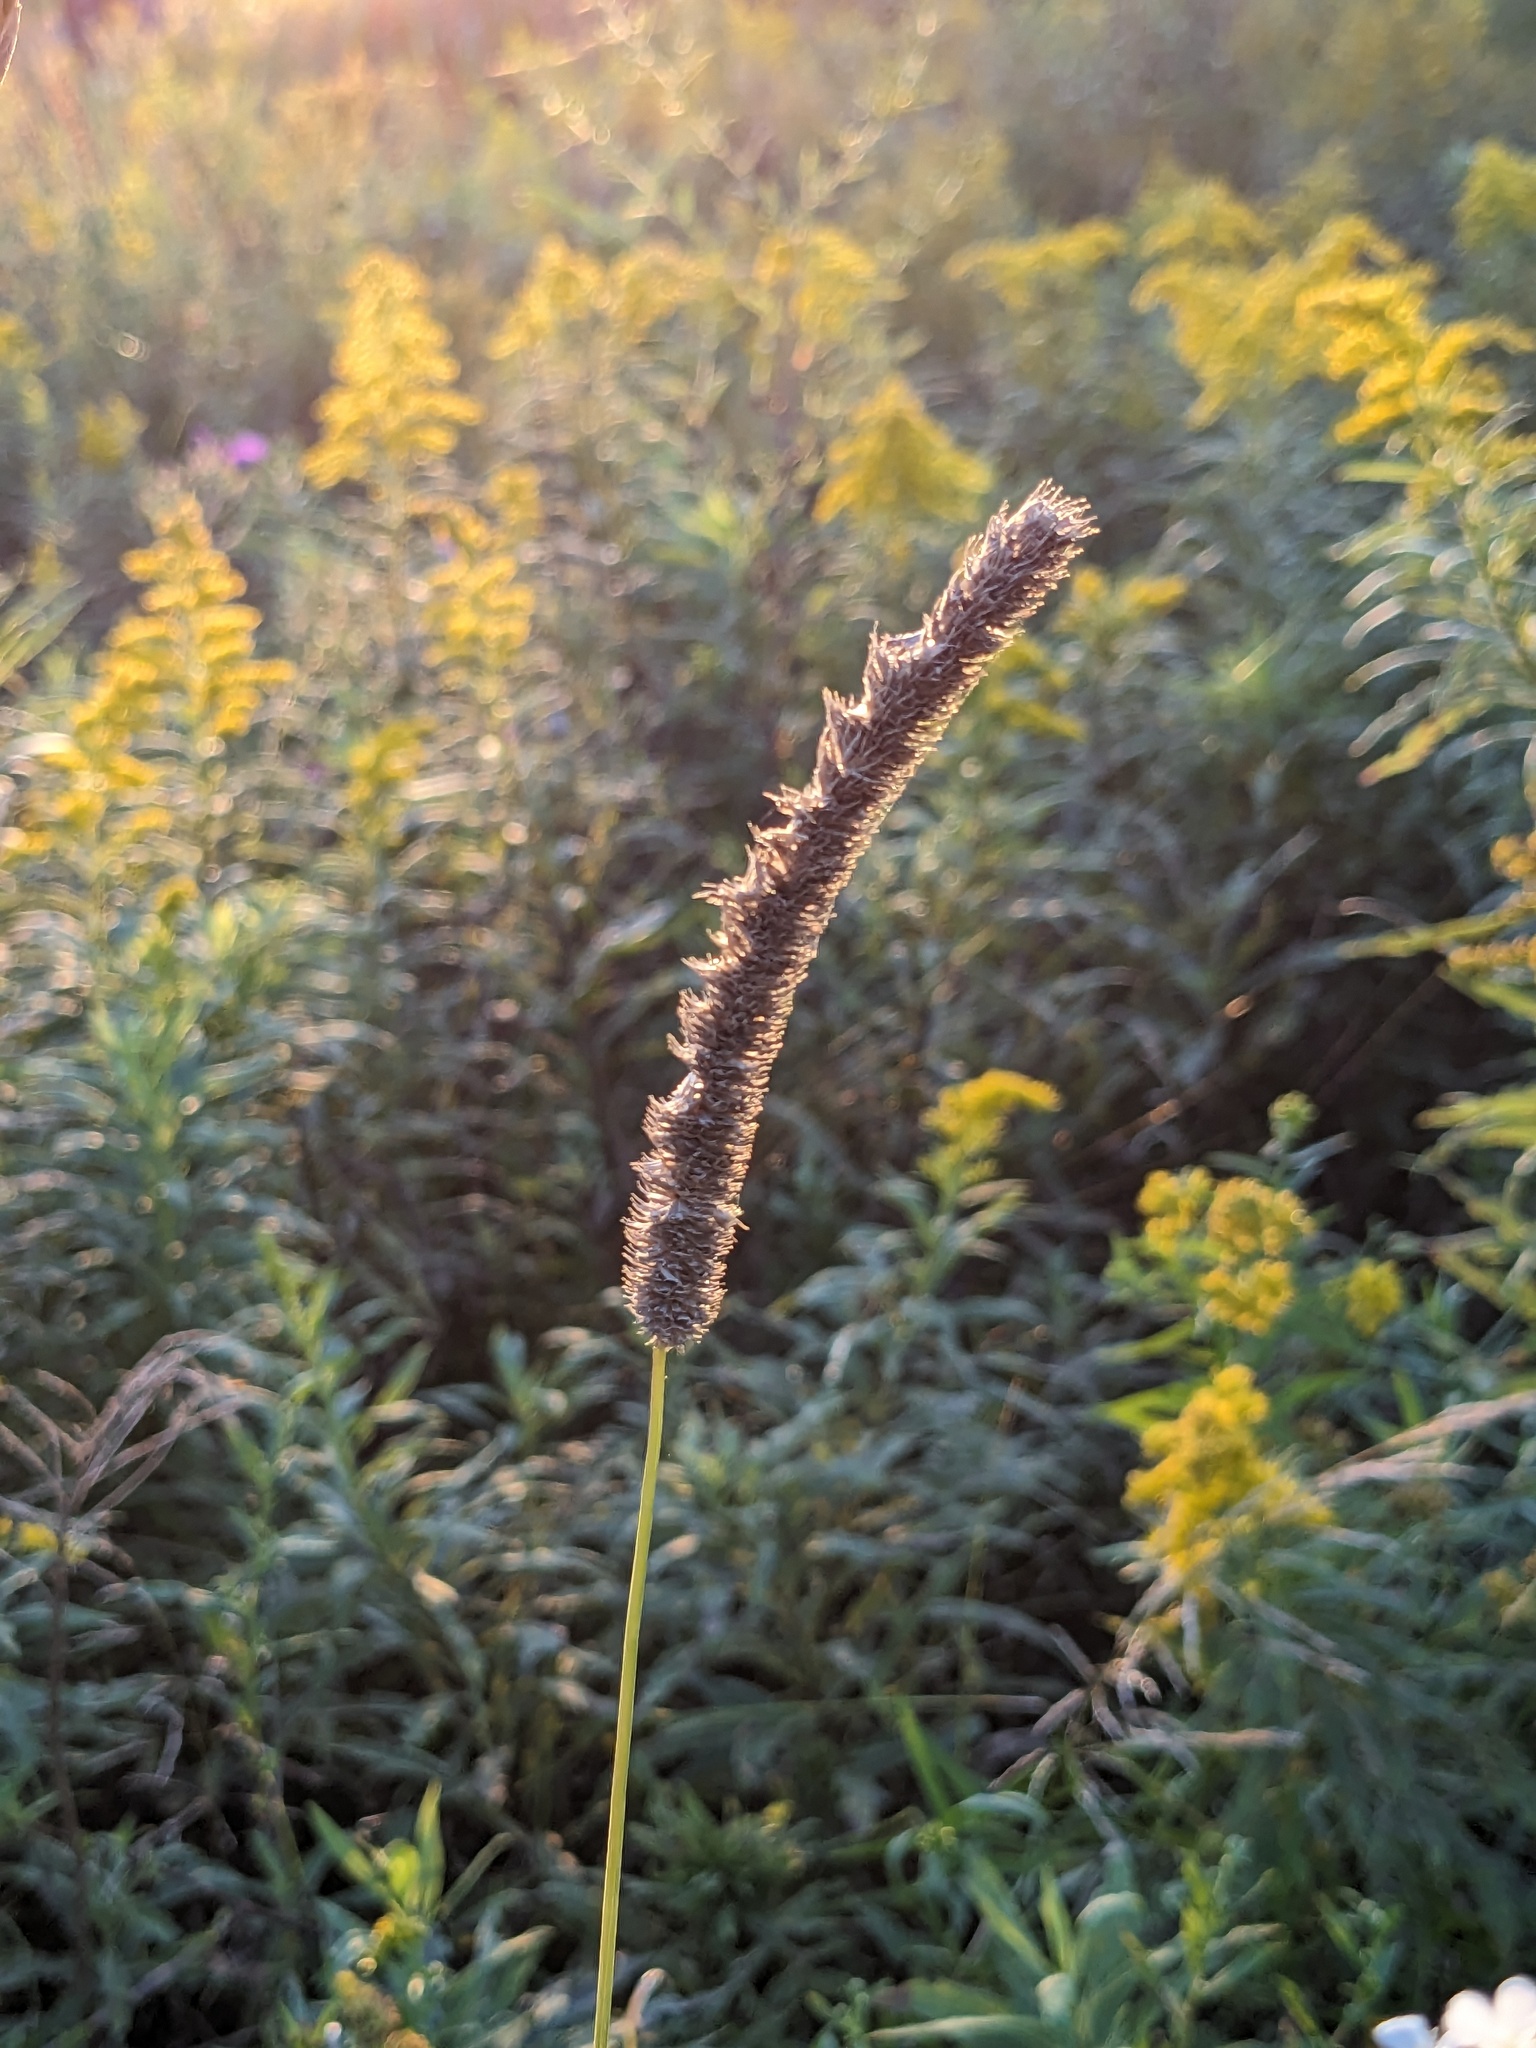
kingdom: Plantae
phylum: Tracheophyta
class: Liliopsida
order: Poales
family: Poaceae
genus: Phleum
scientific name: Phleum pratense
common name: Timothy grass
